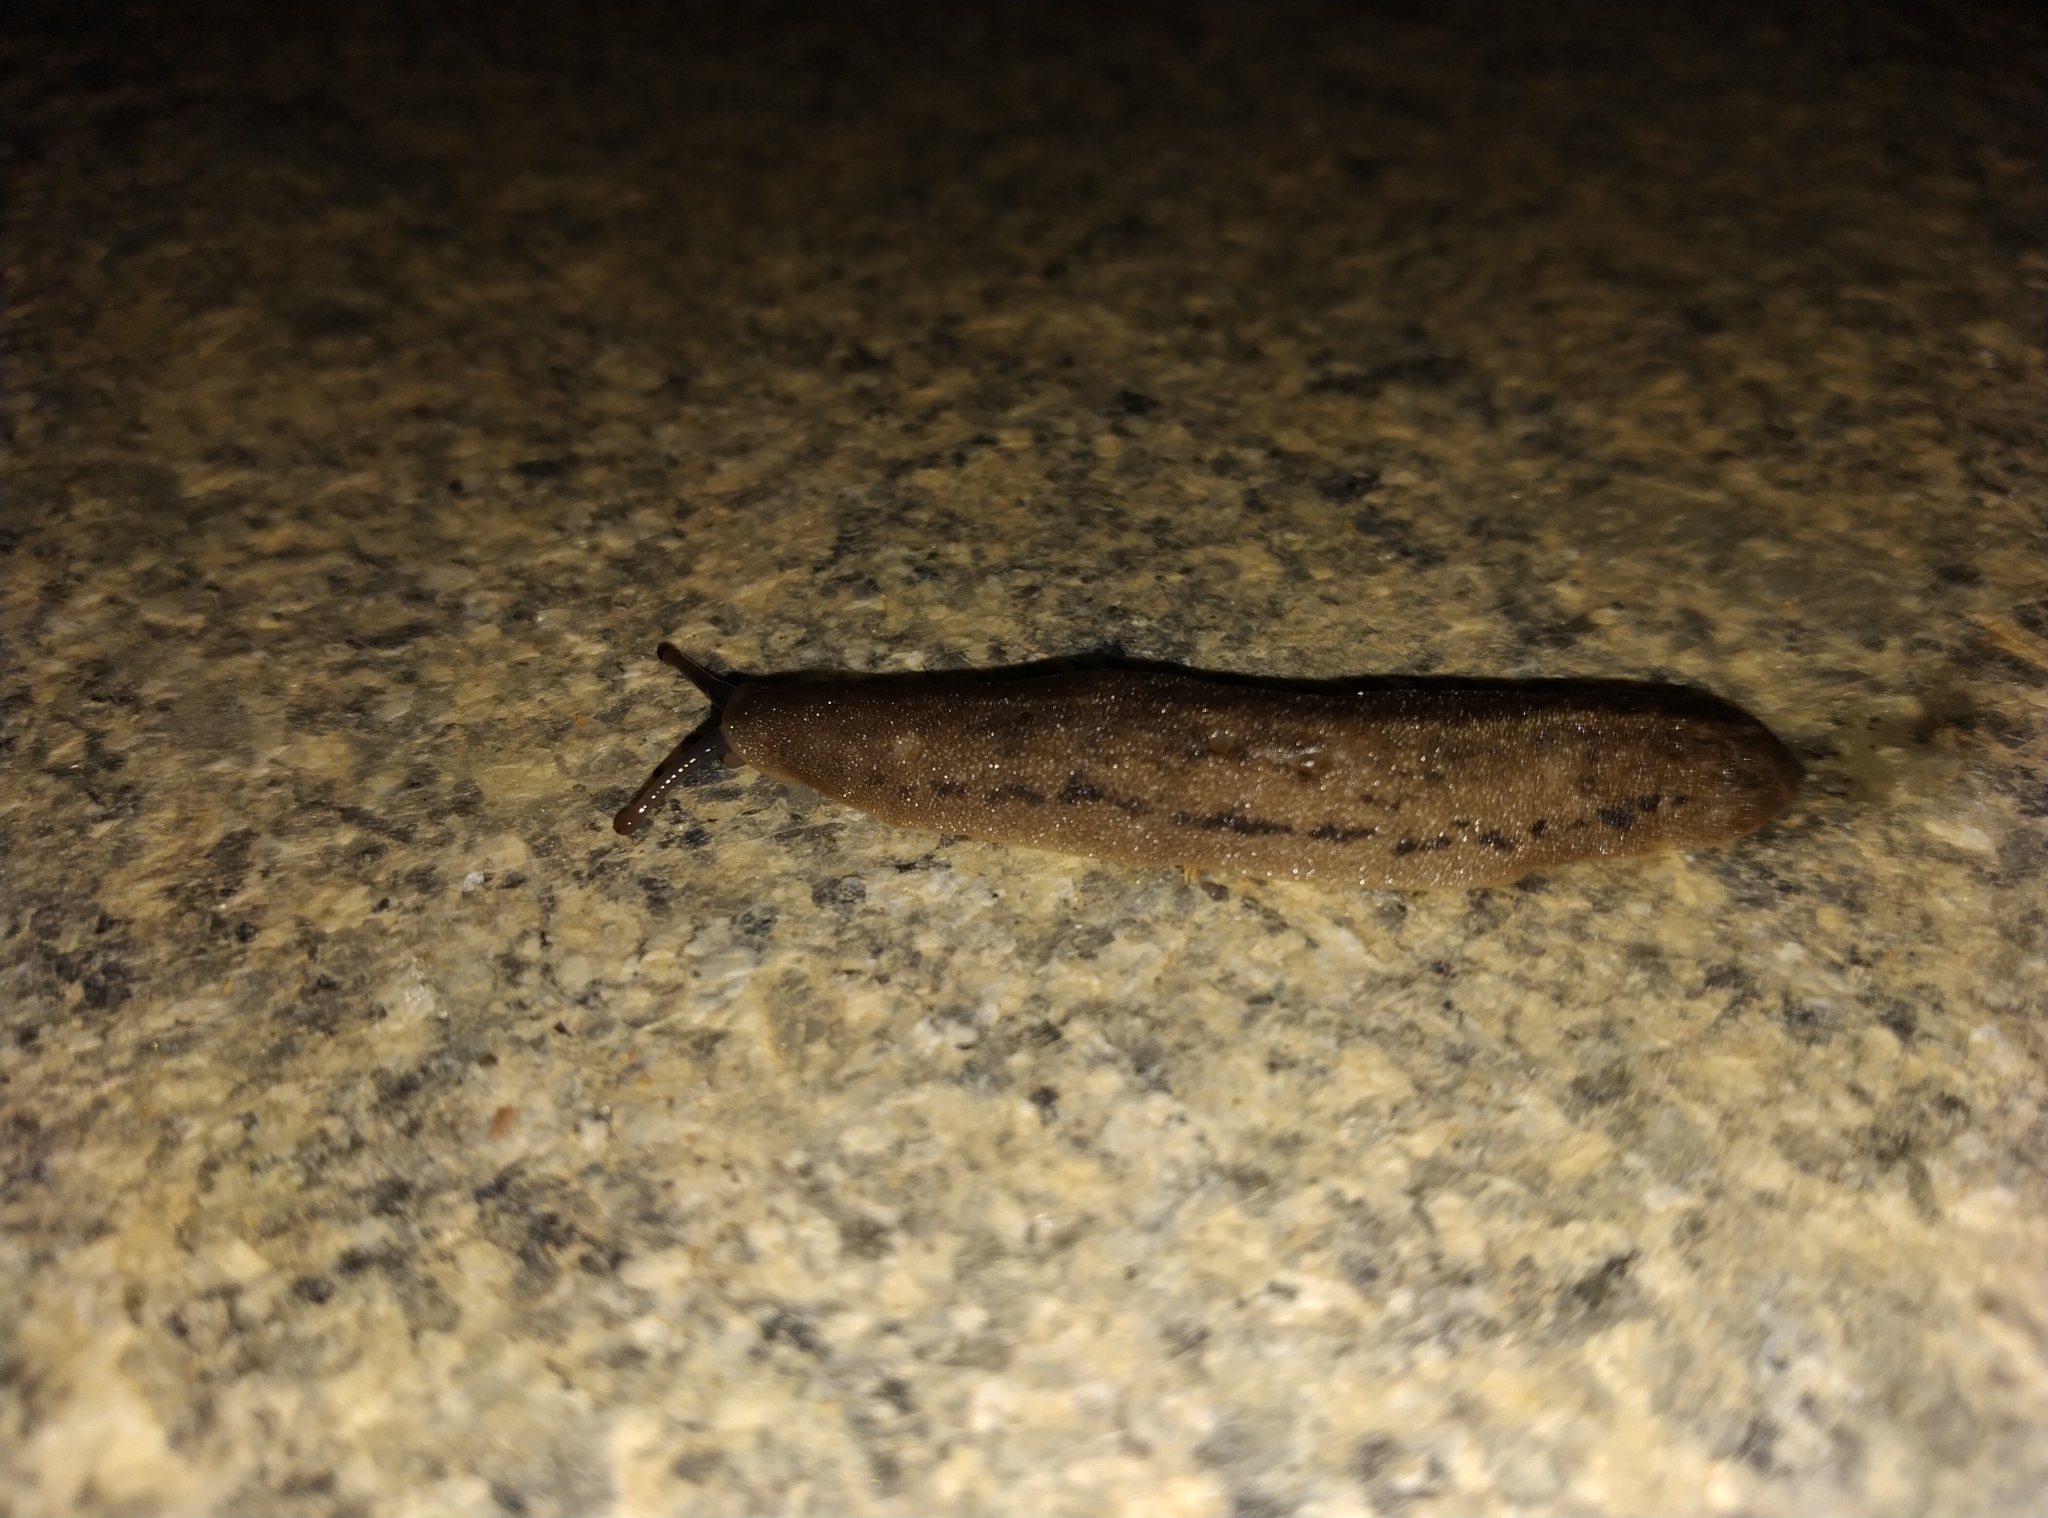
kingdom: Animalia
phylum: Mollusca
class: Gastropoda
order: Systellommatophora
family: Veronicellidae
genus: Laevicaulis
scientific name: Laevicaulis alte
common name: Tropical leatherleaf
